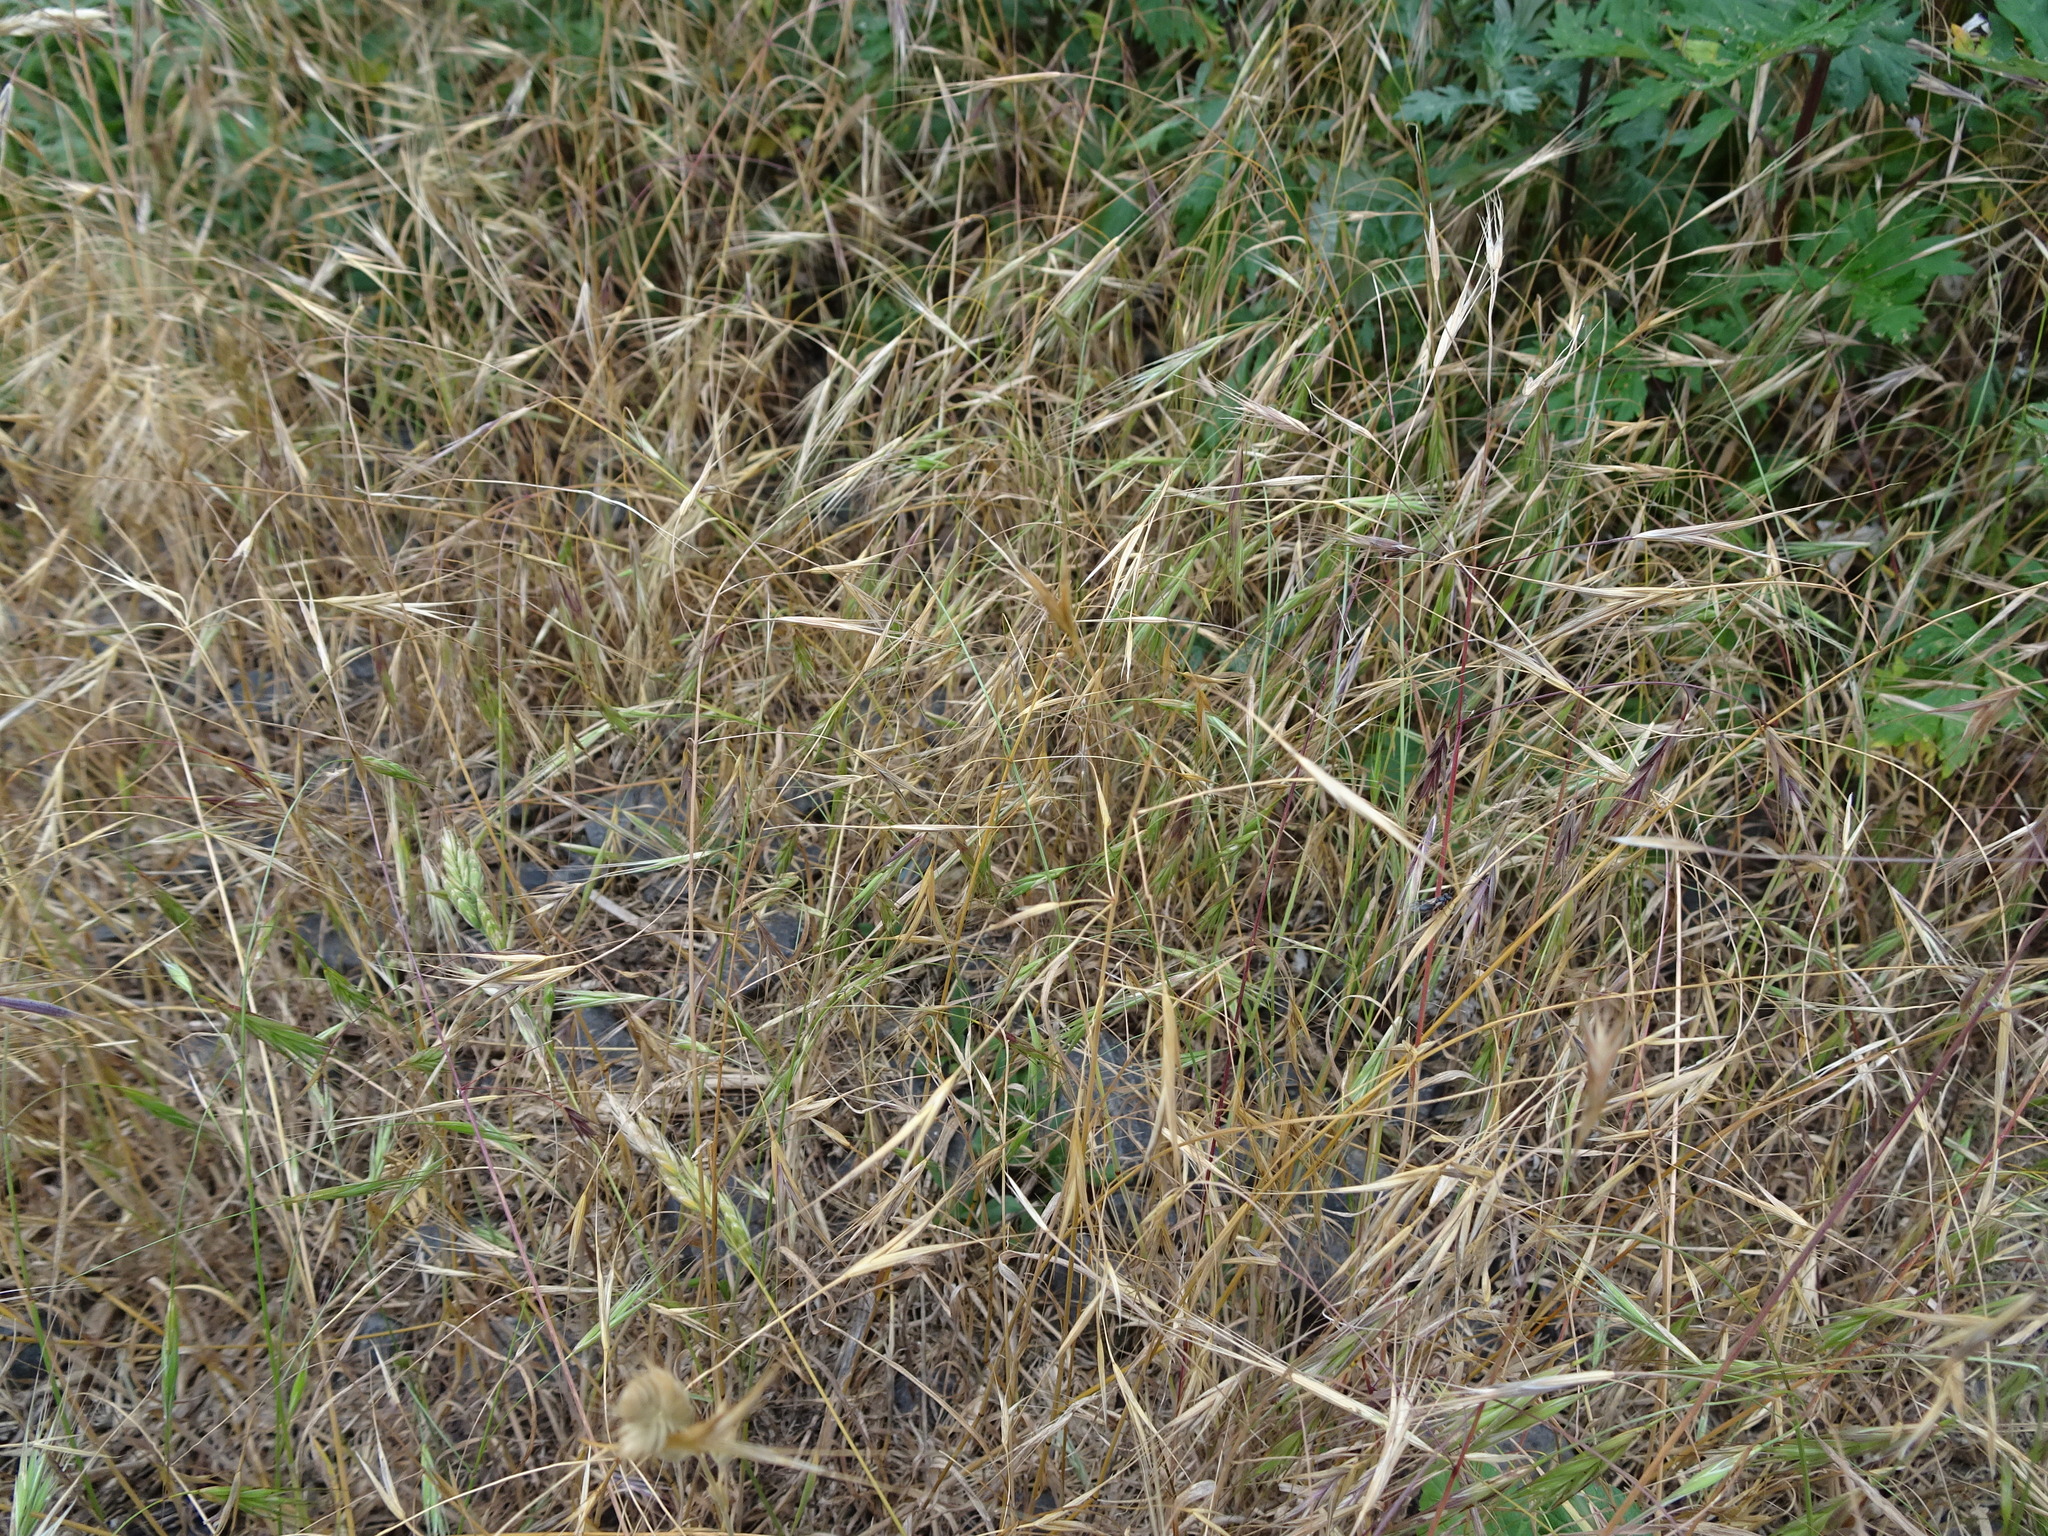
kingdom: Plantae
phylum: Tracheophyta
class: Liliopsida
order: Poales
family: Poaceae
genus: Bromus
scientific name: Bromus sterilis
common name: Poverty brome
